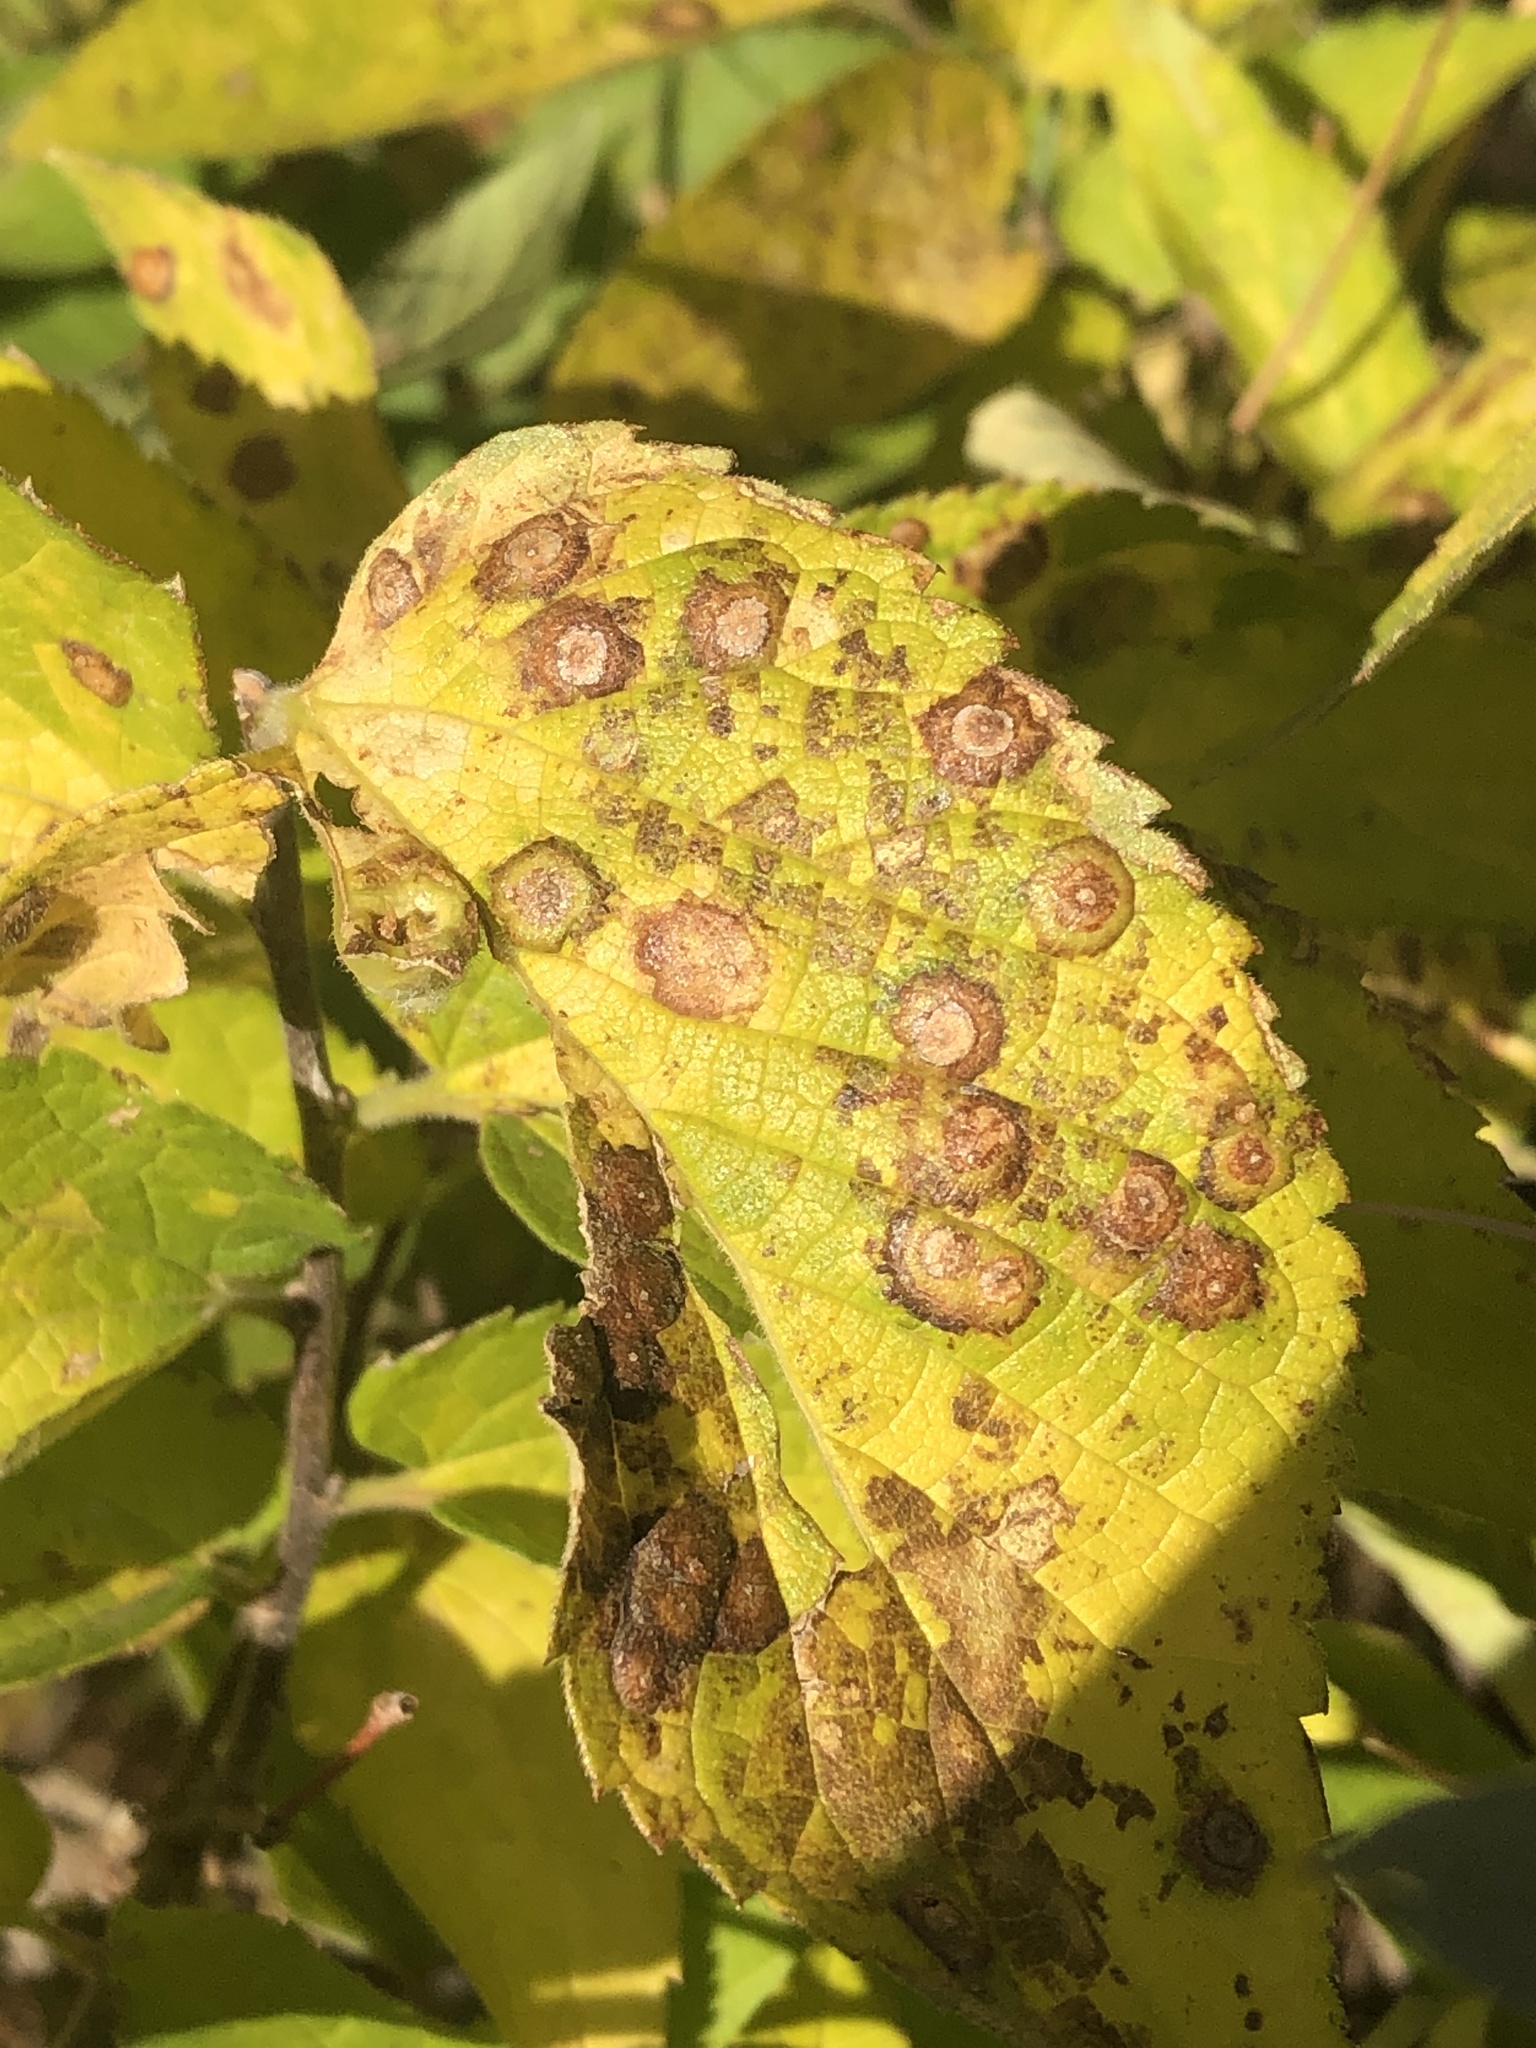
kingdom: Plantae
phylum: Tracheophyta
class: Magnoliopsida
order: Rosales
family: Cannabaceae
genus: Celtis
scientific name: Celtis reticulata
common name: Netleaf hackberry
